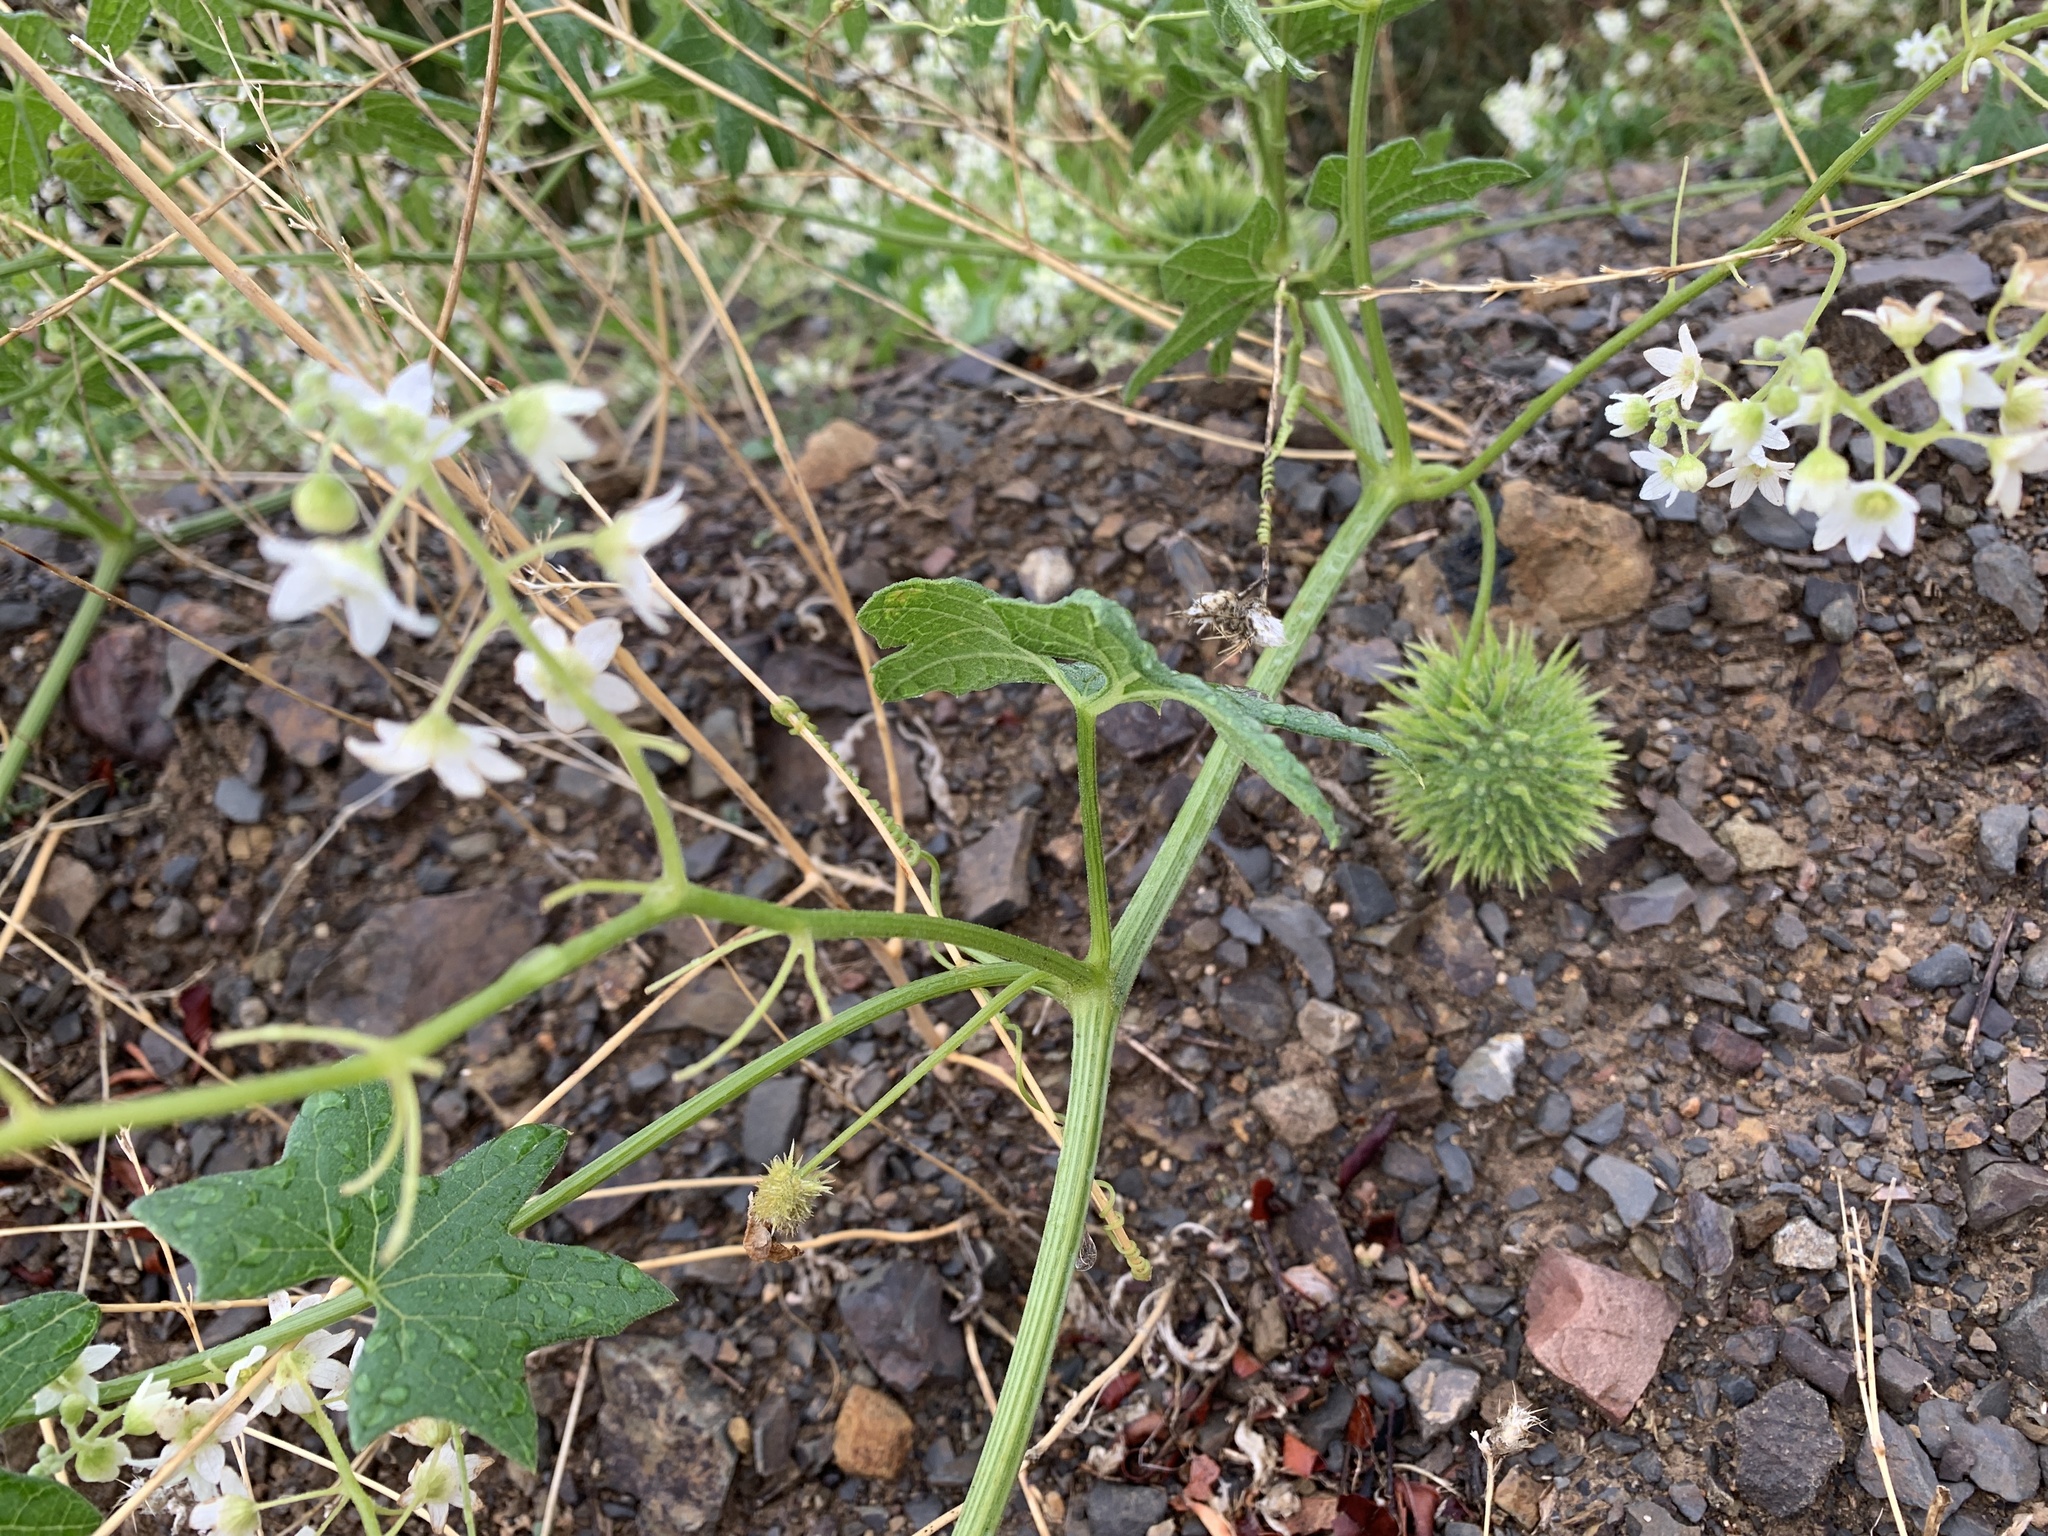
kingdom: Plantae
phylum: Tracheophyta
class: Magnoliopsida
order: Cucurbitales
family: Cucurbitaceae
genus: Marah
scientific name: Marah macrocarpa
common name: Cucamonga manroot
